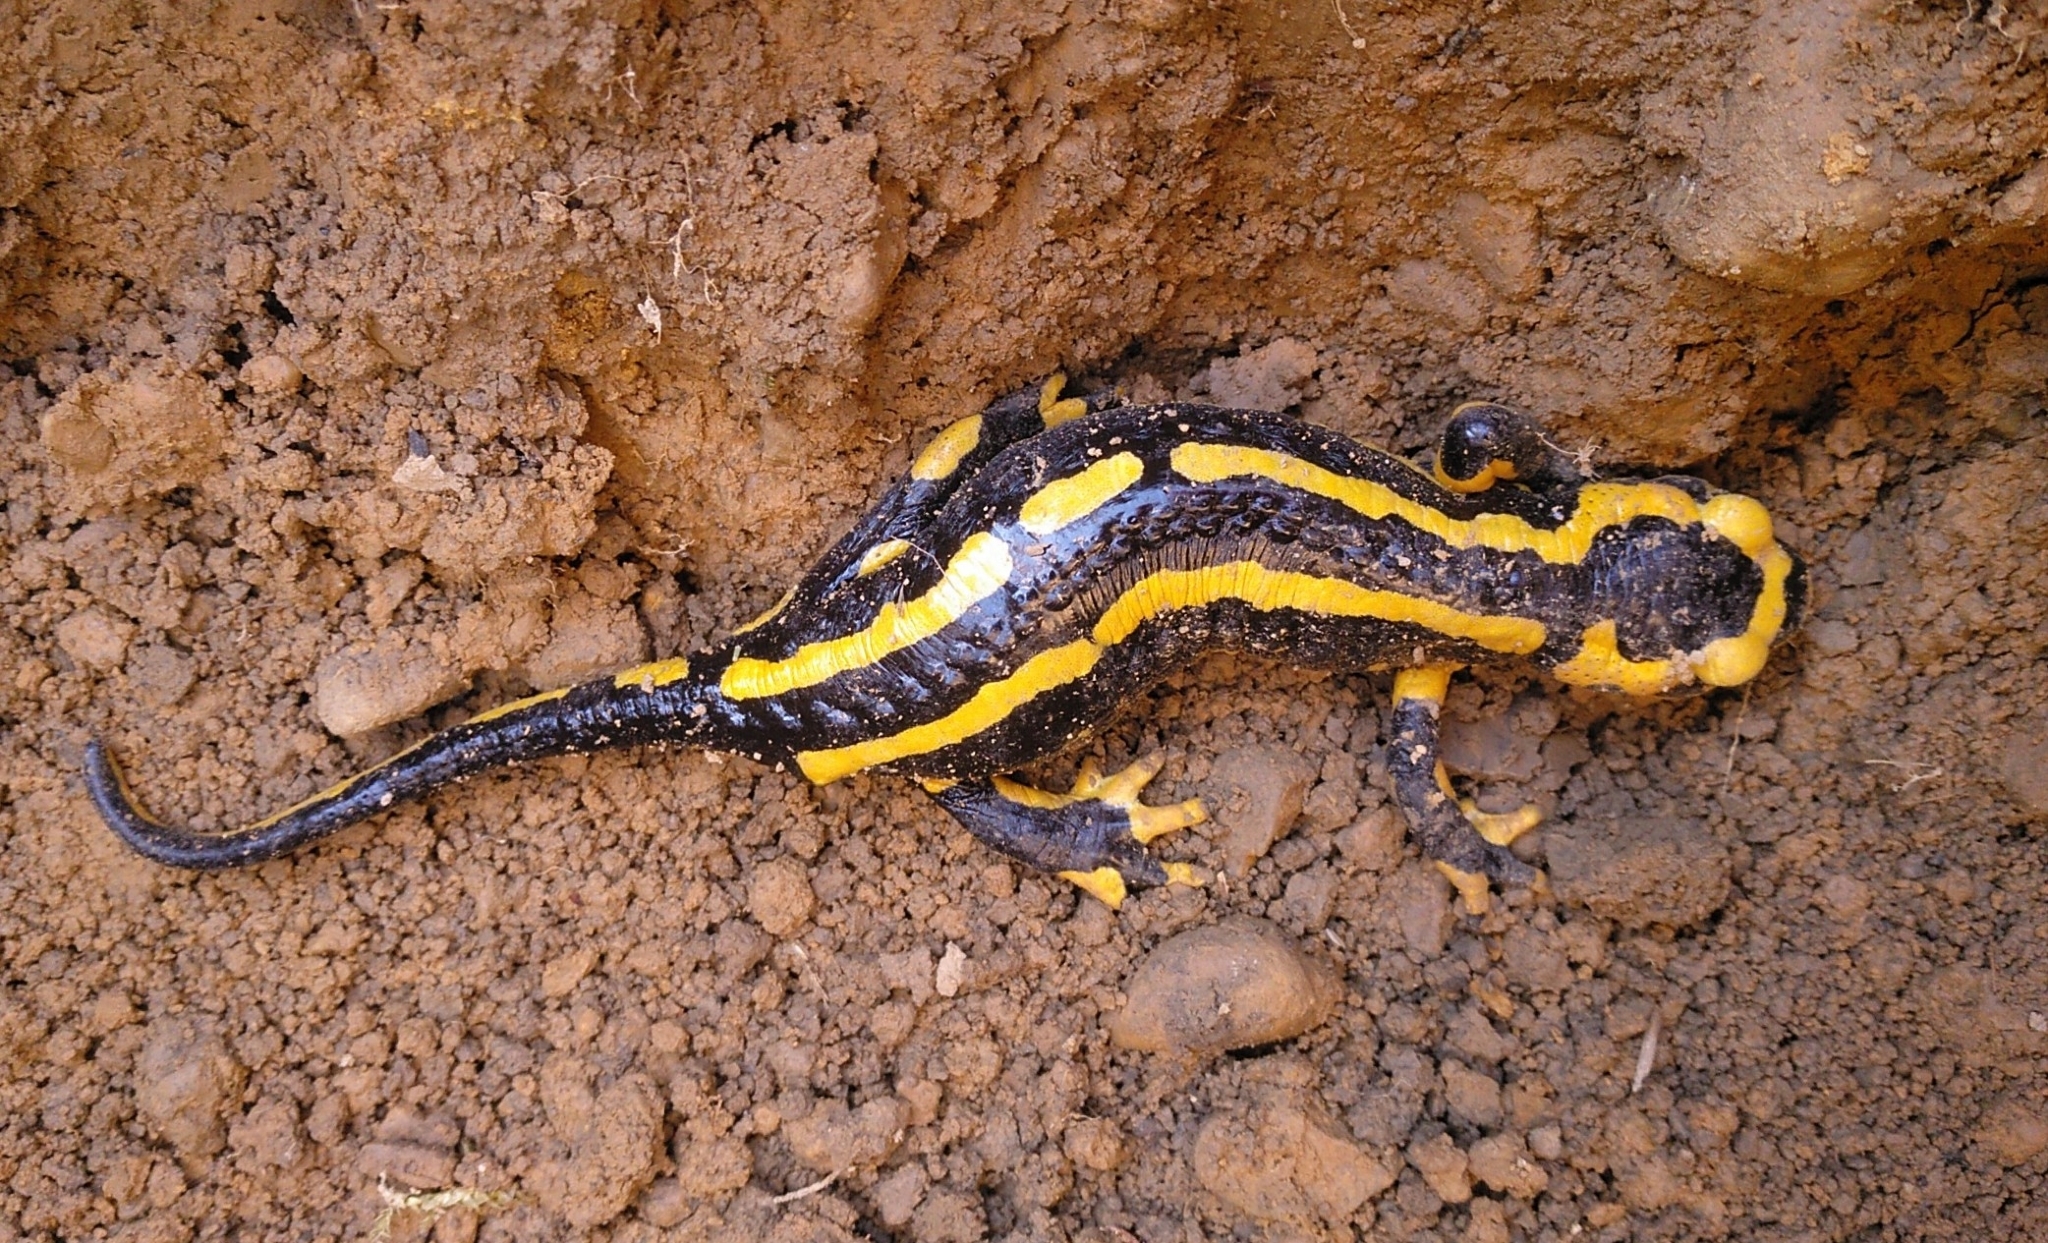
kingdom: Animalia
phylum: Chordata
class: Amphibia
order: Caudata
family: Salamandridae
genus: Salamandra
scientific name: Salamandra salamandra
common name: Fire salamander
